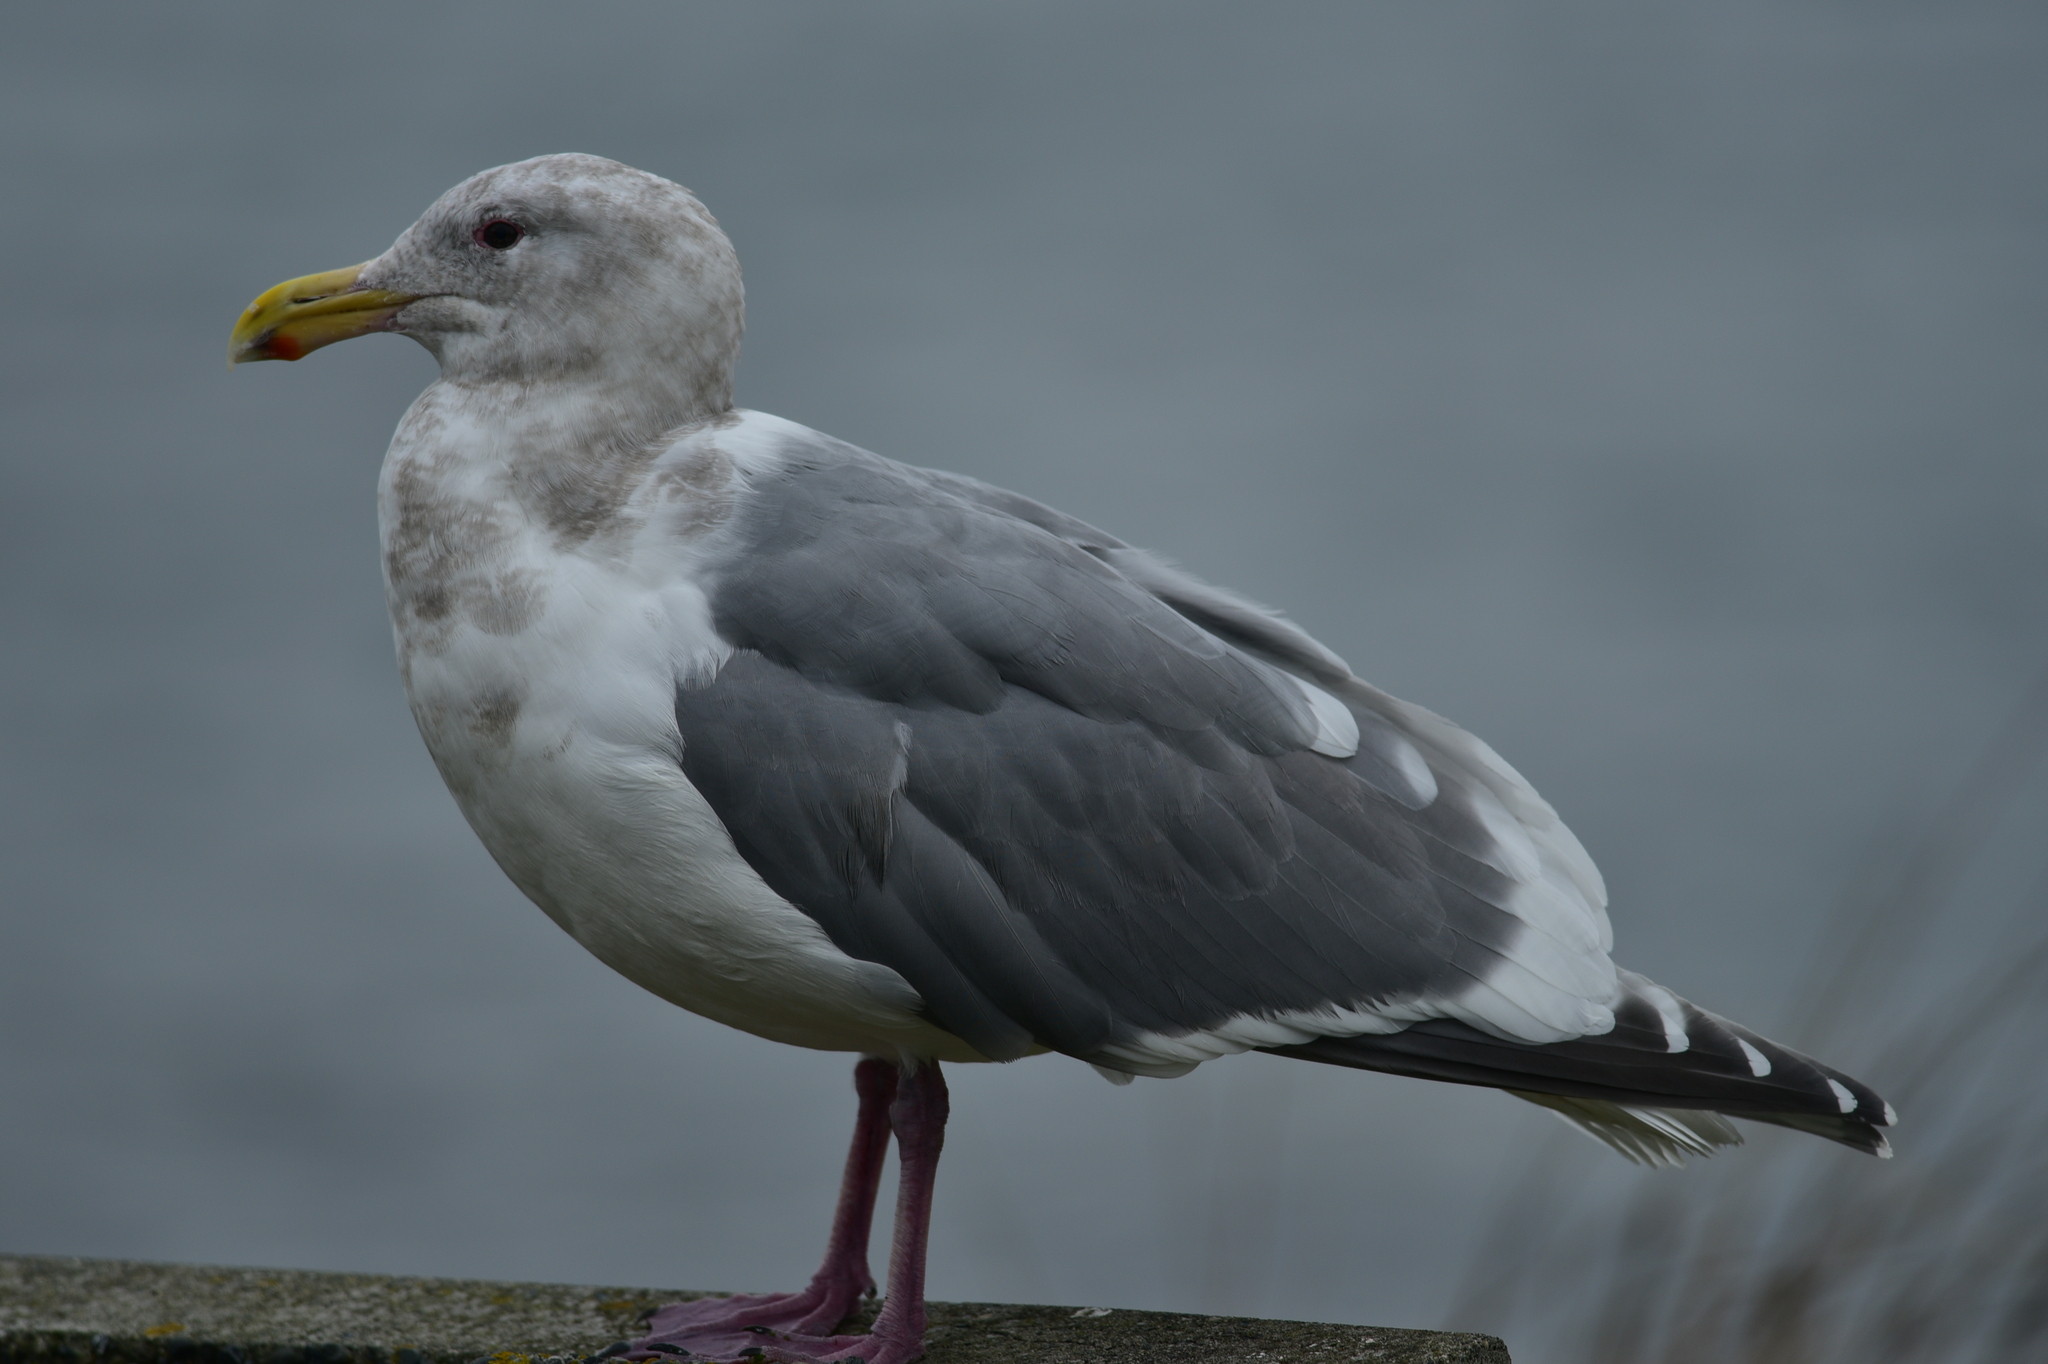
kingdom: Animalia
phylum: Chordata
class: Aves
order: Charadriiformes
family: Laridae
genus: Larus
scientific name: Larus
